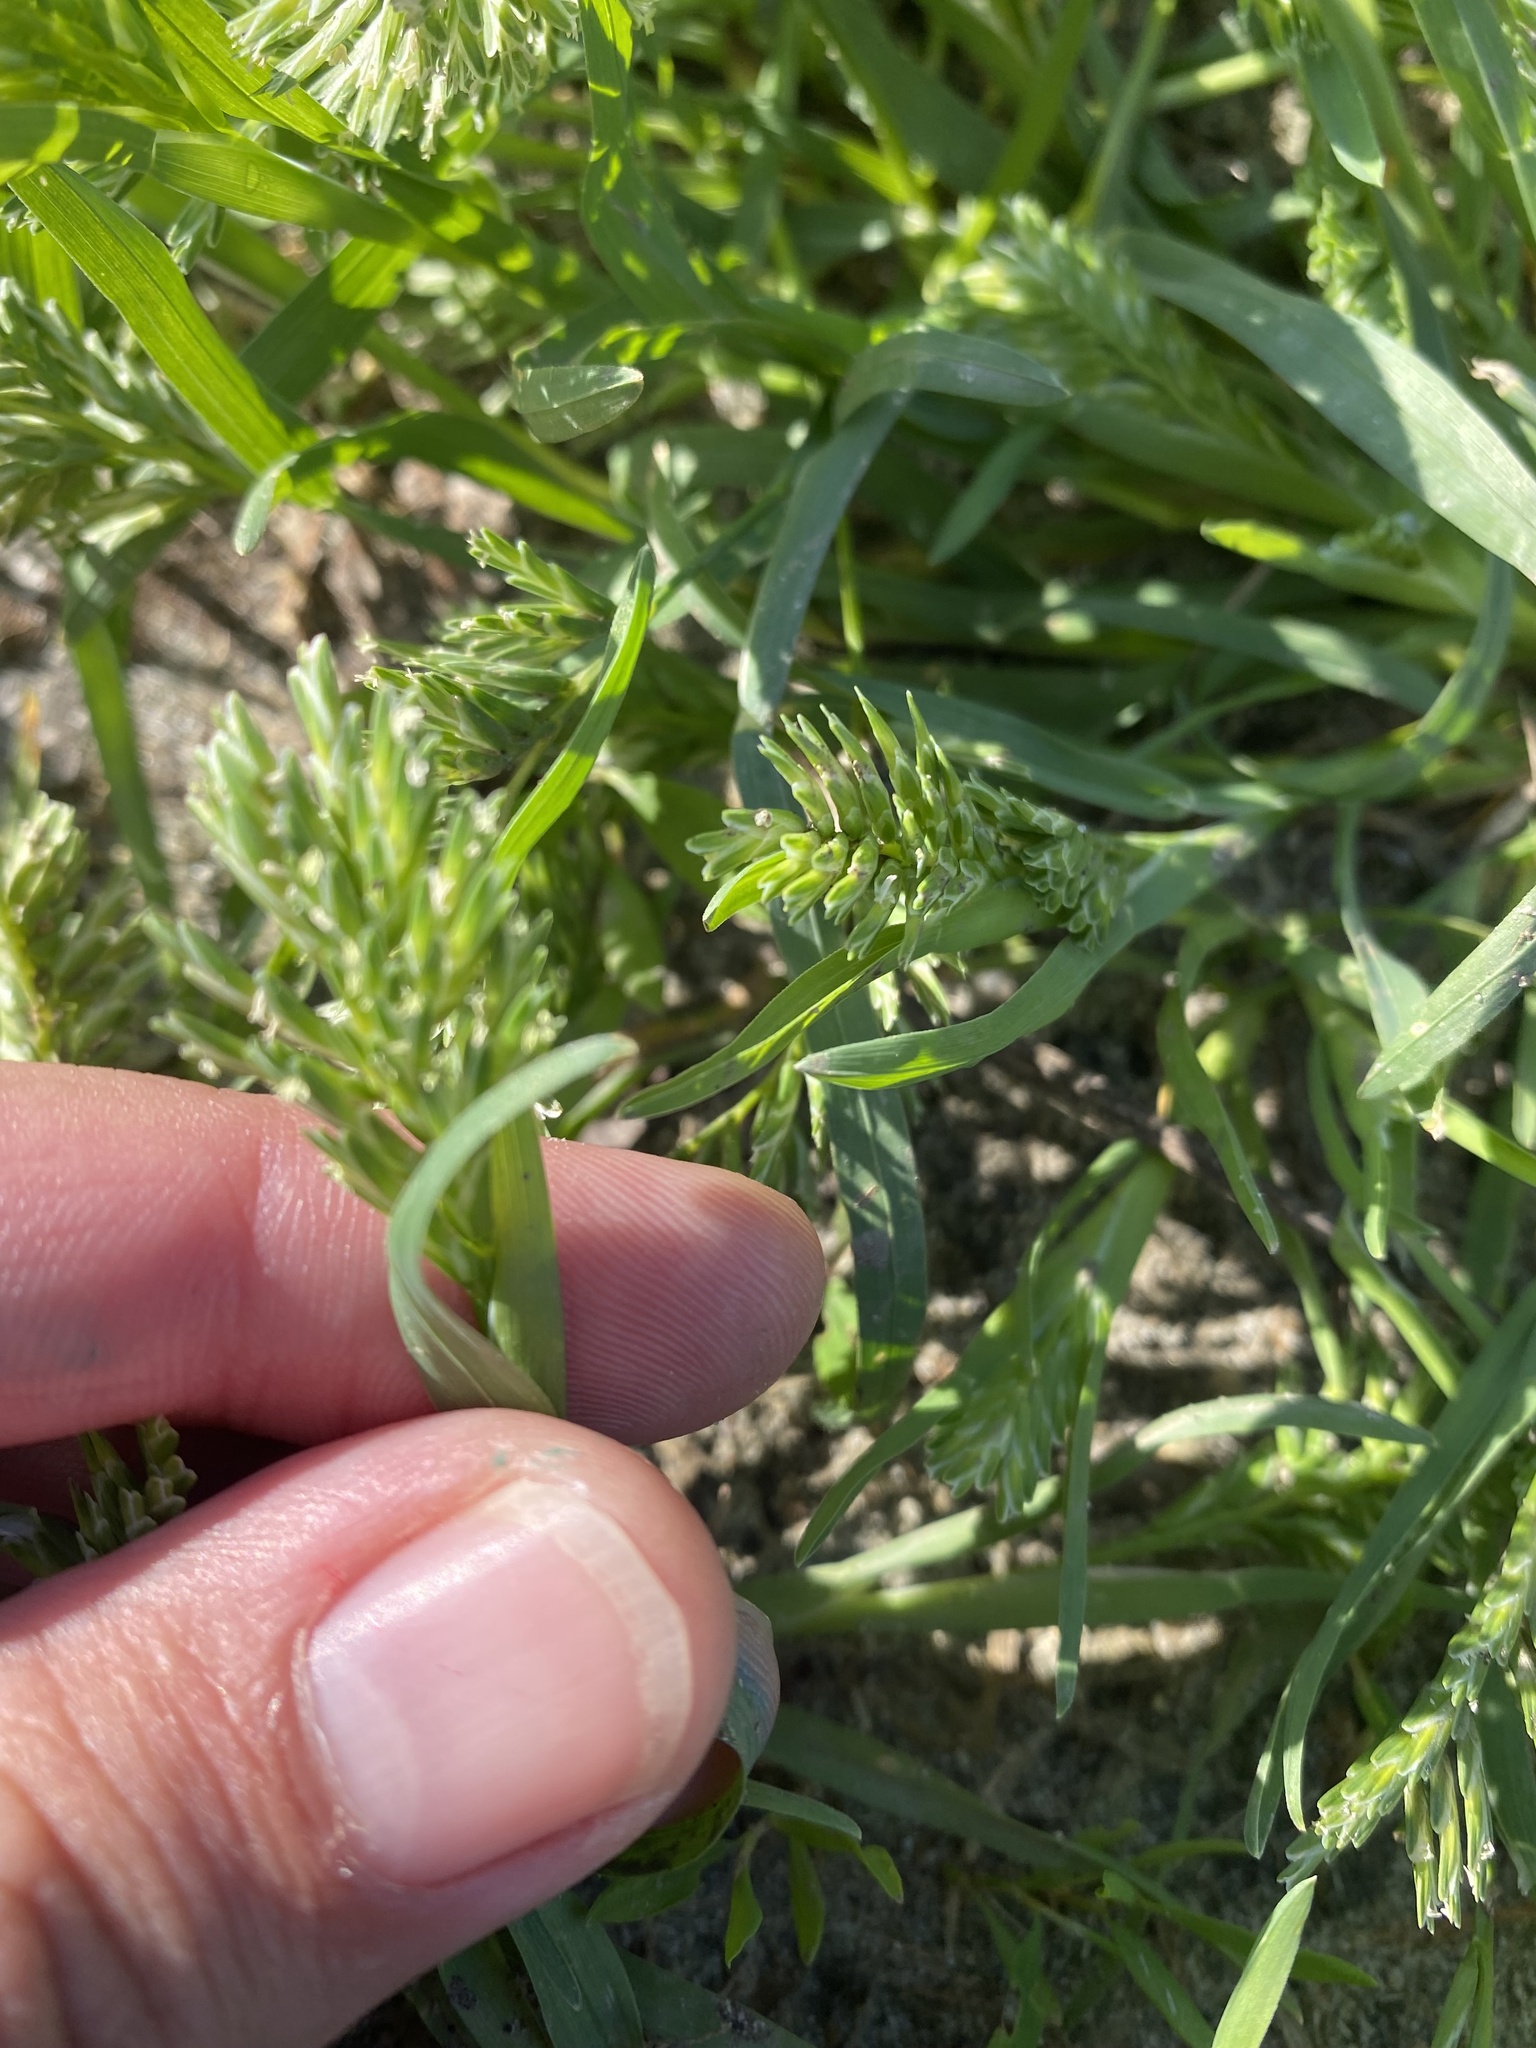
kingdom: Plantae
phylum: Tracheophyta
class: Liliopsida
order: Poales
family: Poaceae
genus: Sclerochloa
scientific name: Sclerochloa dura
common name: Common hardgrass
